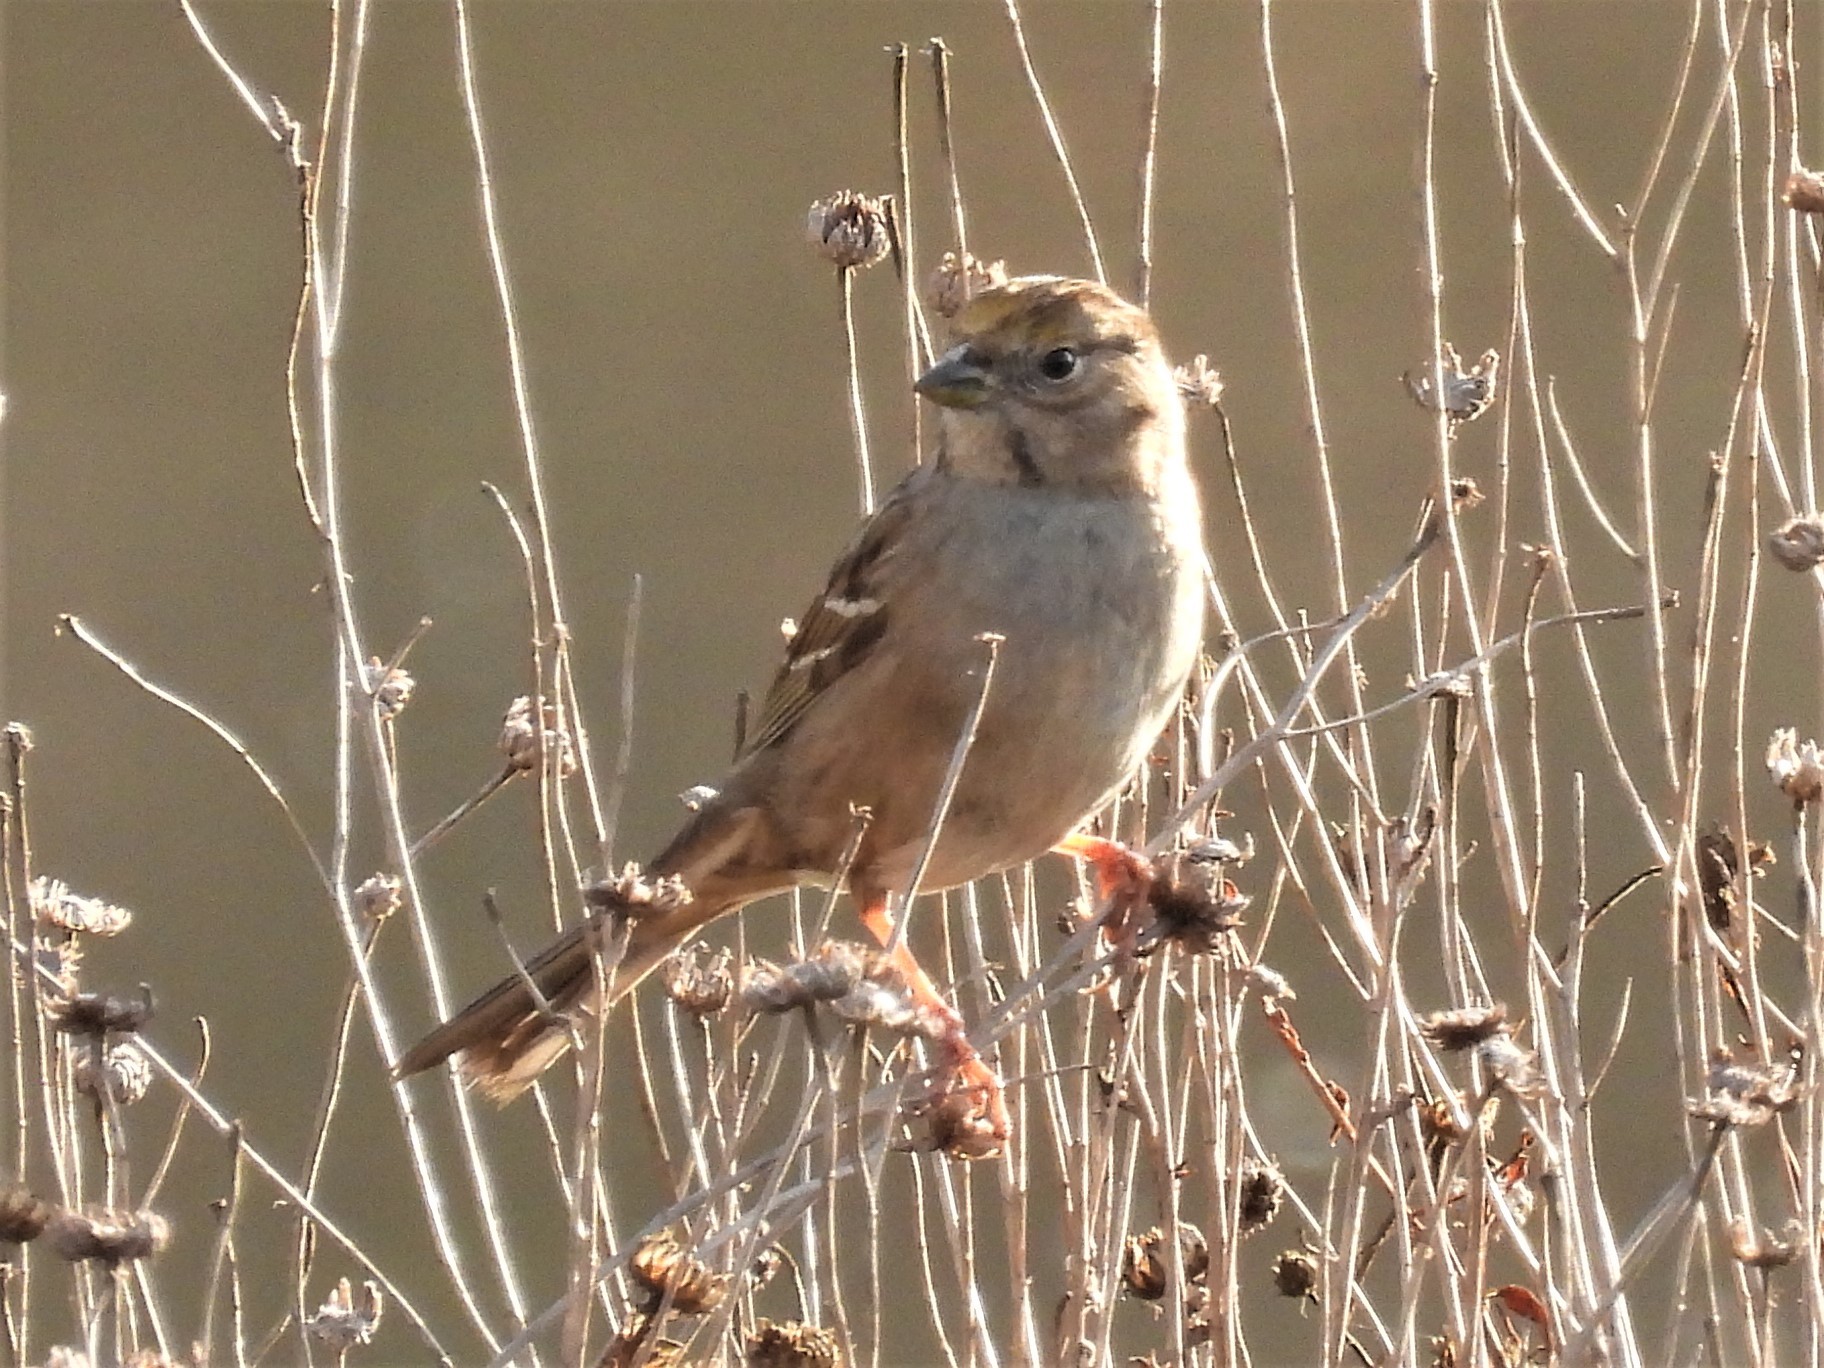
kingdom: Animalia
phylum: Chordata
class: Aves
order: Passeriformes
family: Passerellidae
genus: Zonotrichia
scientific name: Zonotrichia atricapilla
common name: Golden-crowned sparrow
